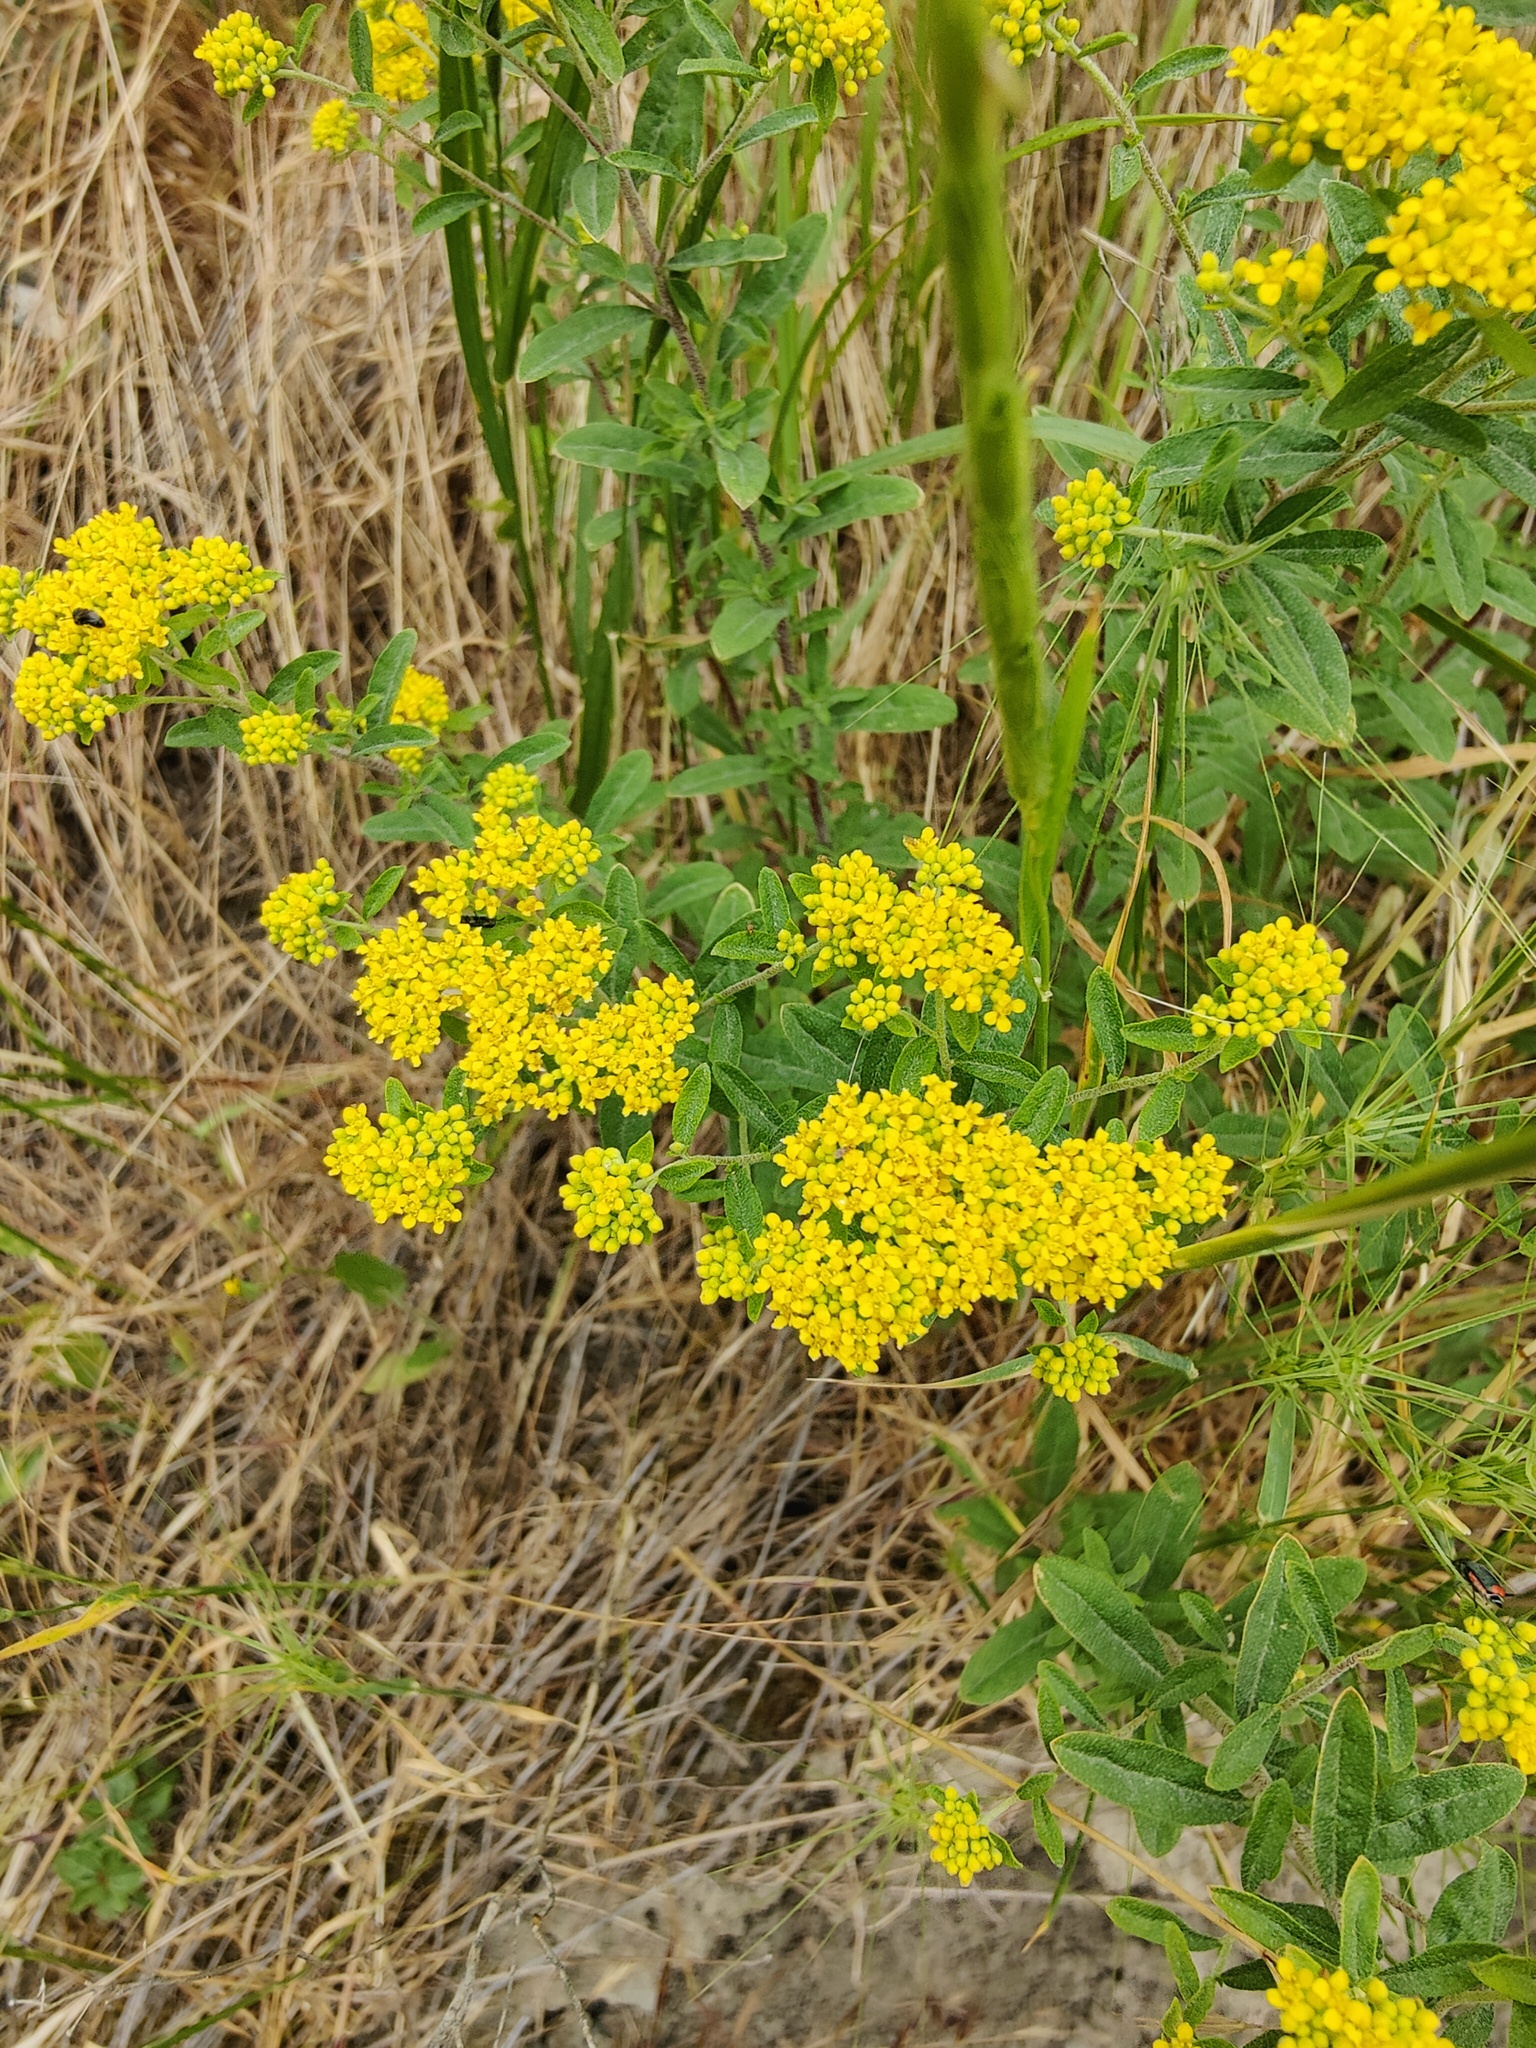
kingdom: Plantae
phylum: Tracheophyta
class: Magnoliopsida
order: Brassicales
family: Brassicaceae
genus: Odontarrhena
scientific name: Odontarrhena muralis
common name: Rock alyssum
